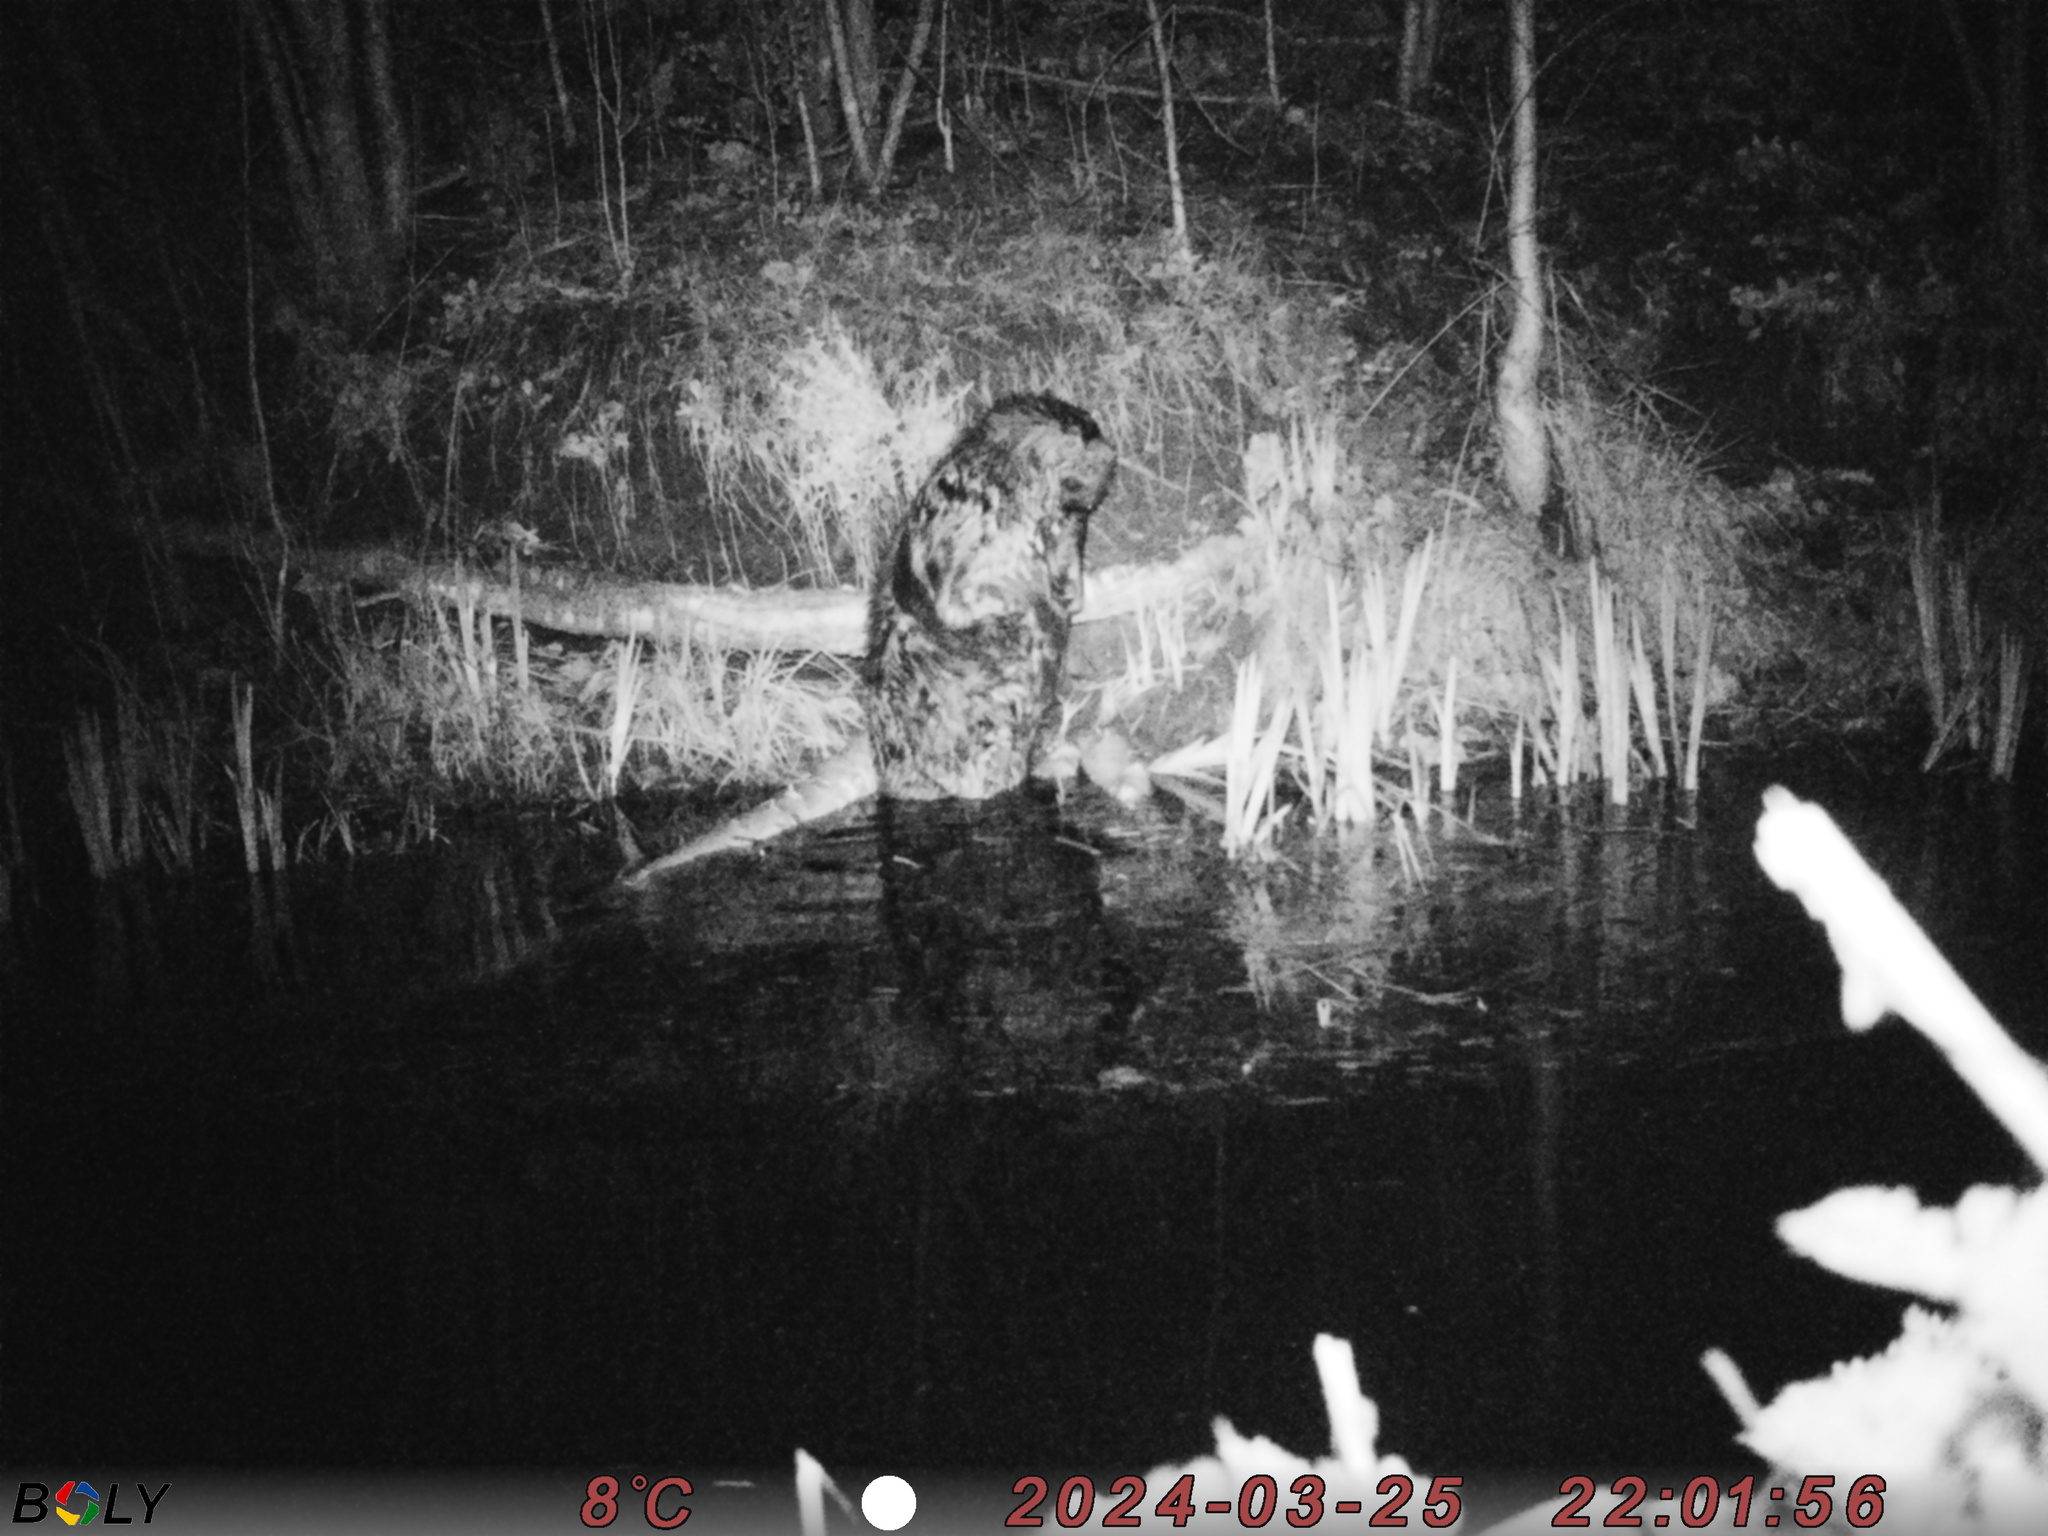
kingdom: Animalia
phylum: Chordata
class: Mammalia
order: Rodentia
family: Castoridae
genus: Castor
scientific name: Castor fiber
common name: Eurasian beaver
